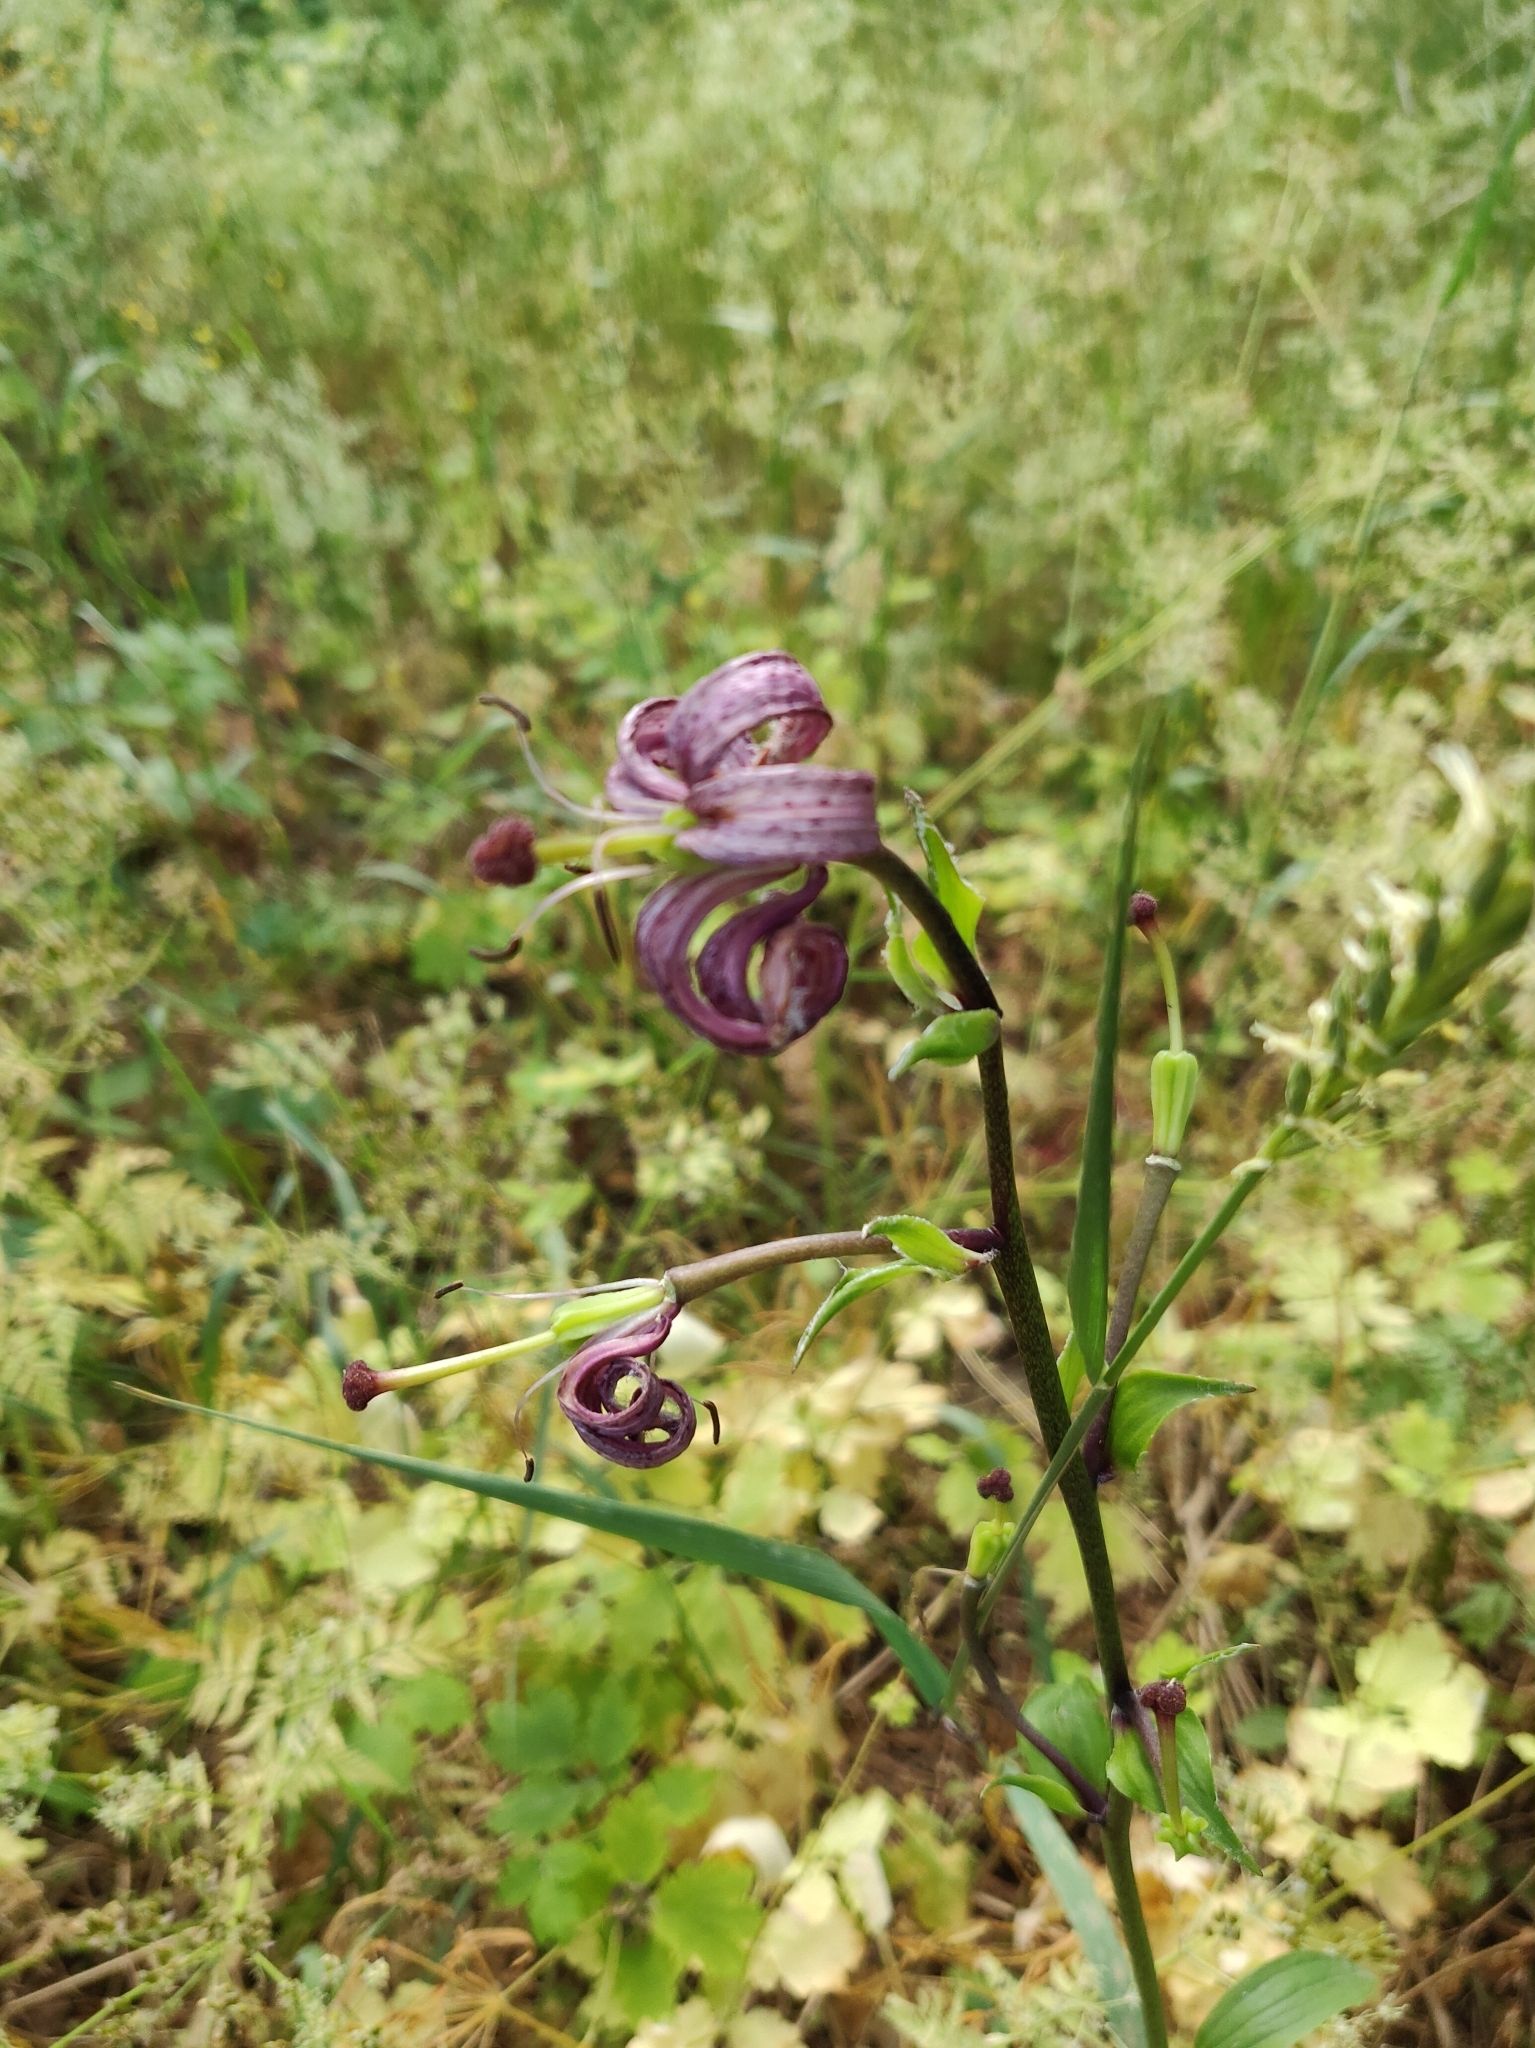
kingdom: Plantae
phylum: Tracheophyta
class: Liliopsida
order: Liliales
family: Liliaceae
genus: Lilium
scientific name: Lilium martagon
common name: Martagon lily
